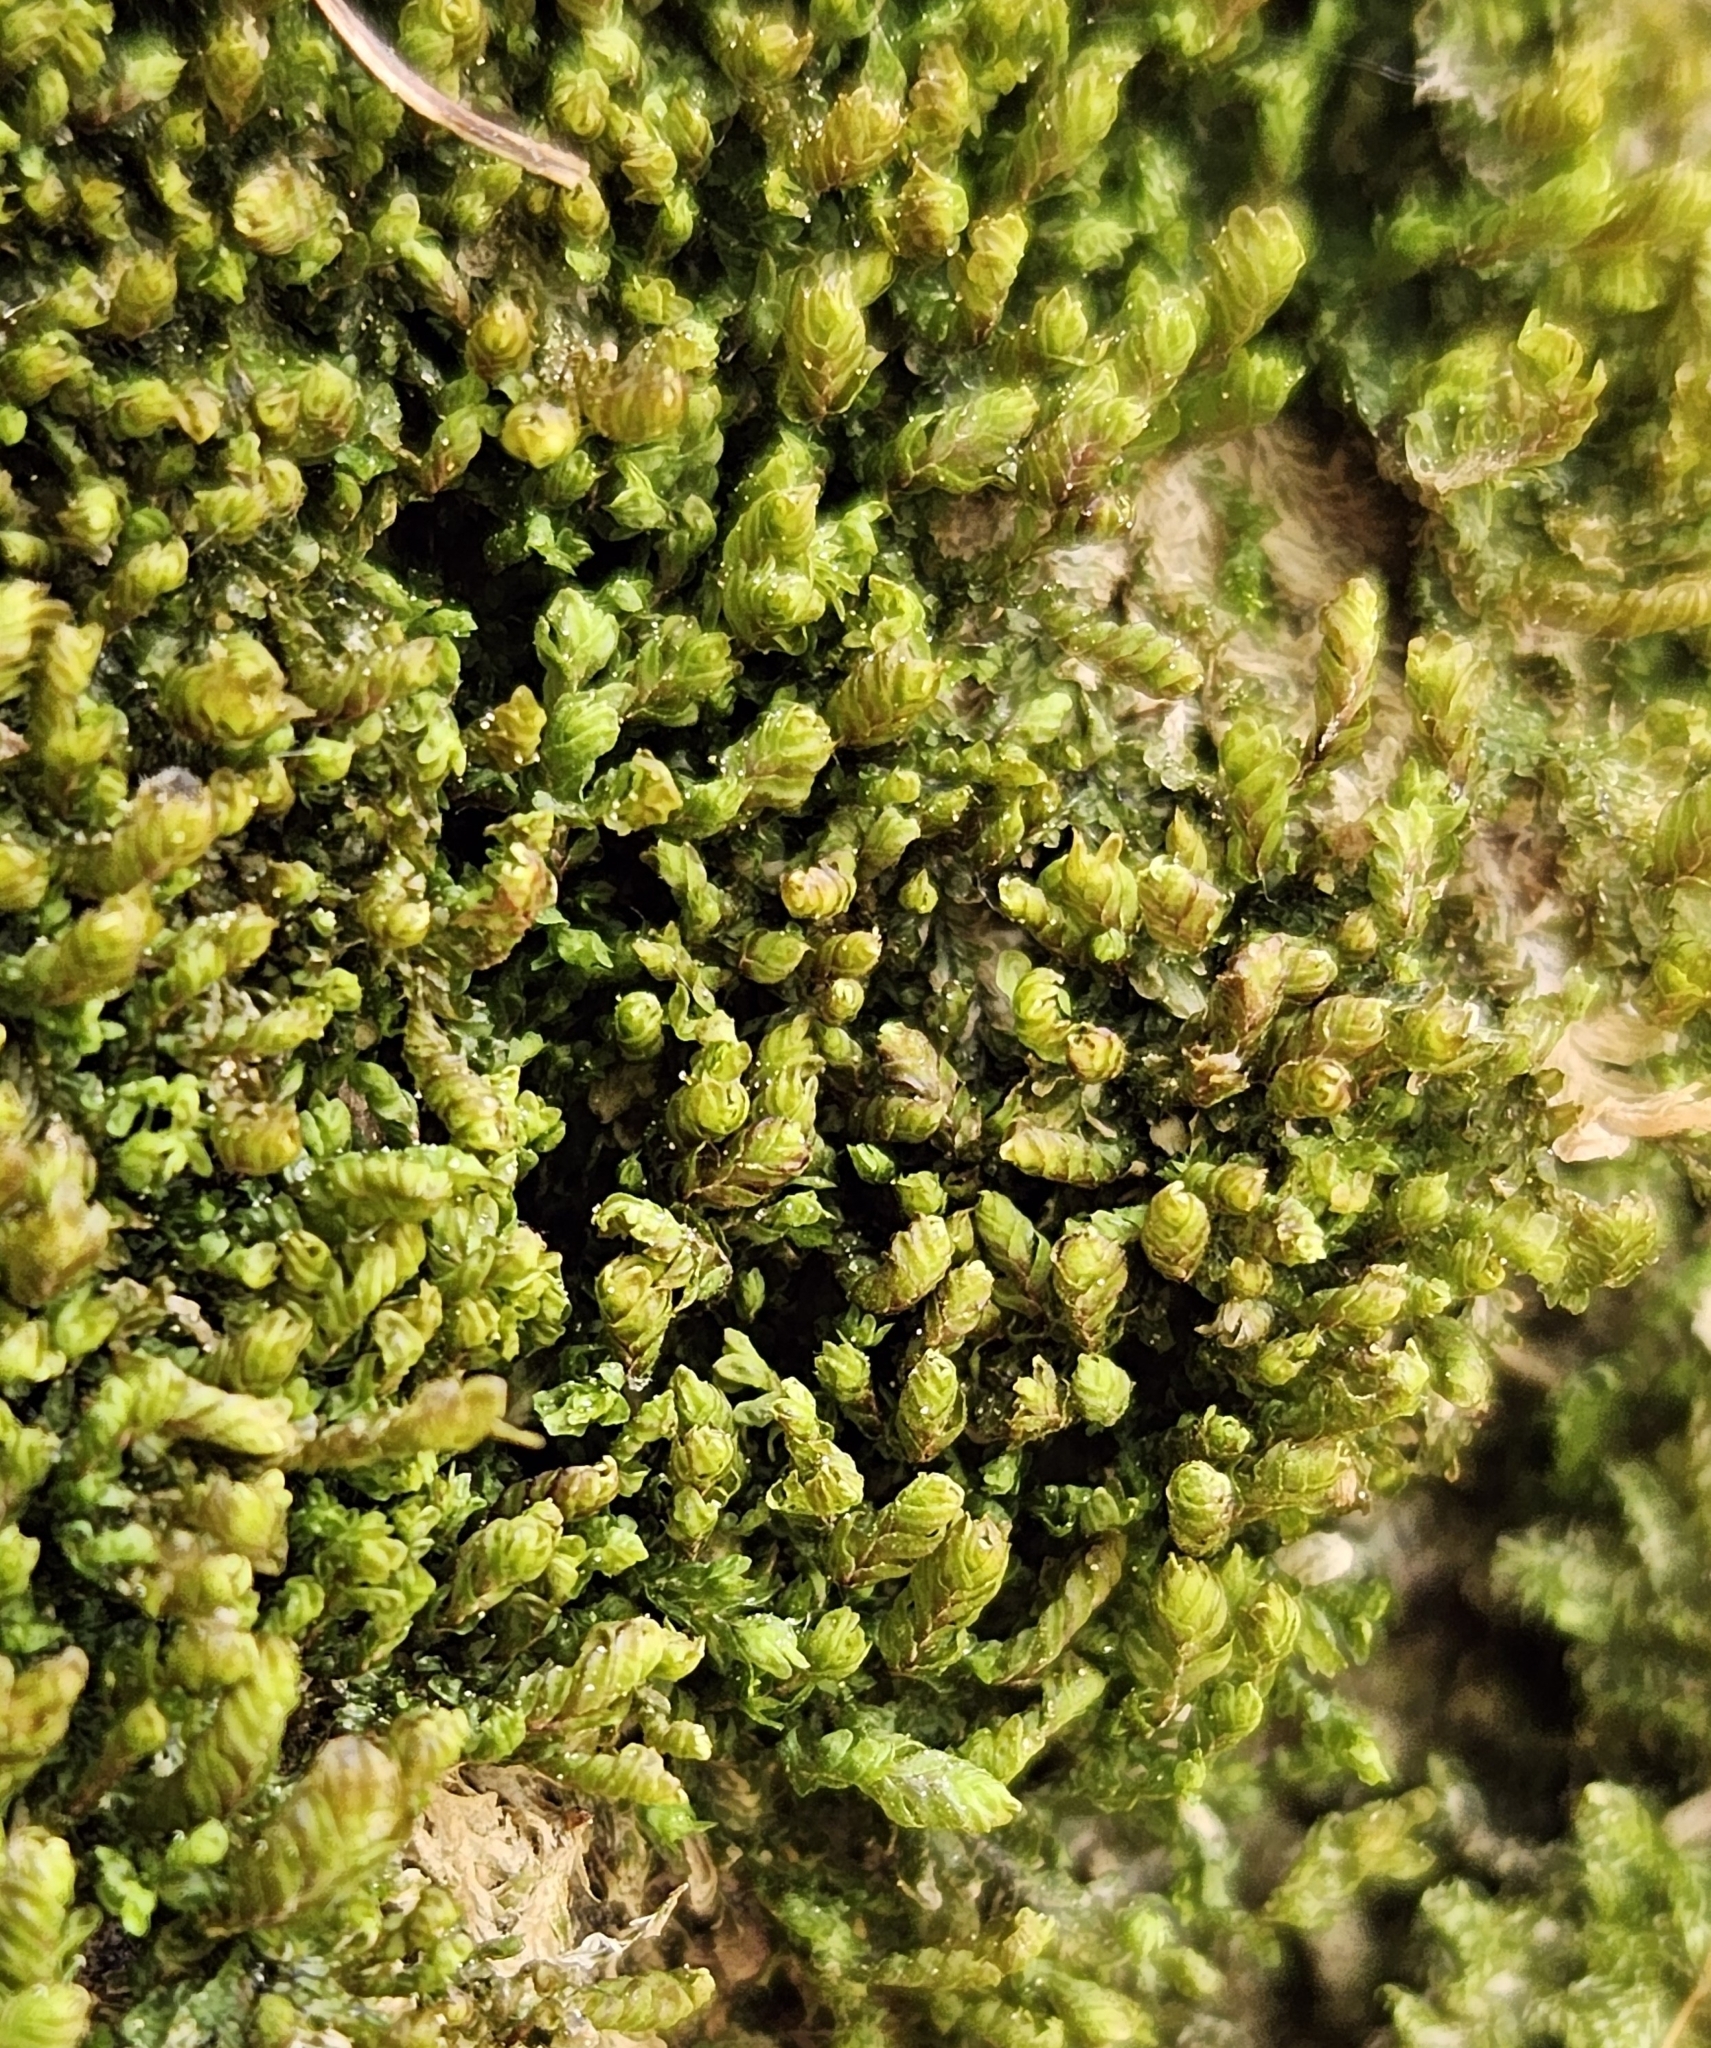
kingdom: Plantae
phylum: Marchantiophyta
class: Jungermanniopsida
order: Jungermanniales
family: Scapaniaceae
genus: Diplophyllum
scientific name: Diplophyllum albicans
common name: White earwort
